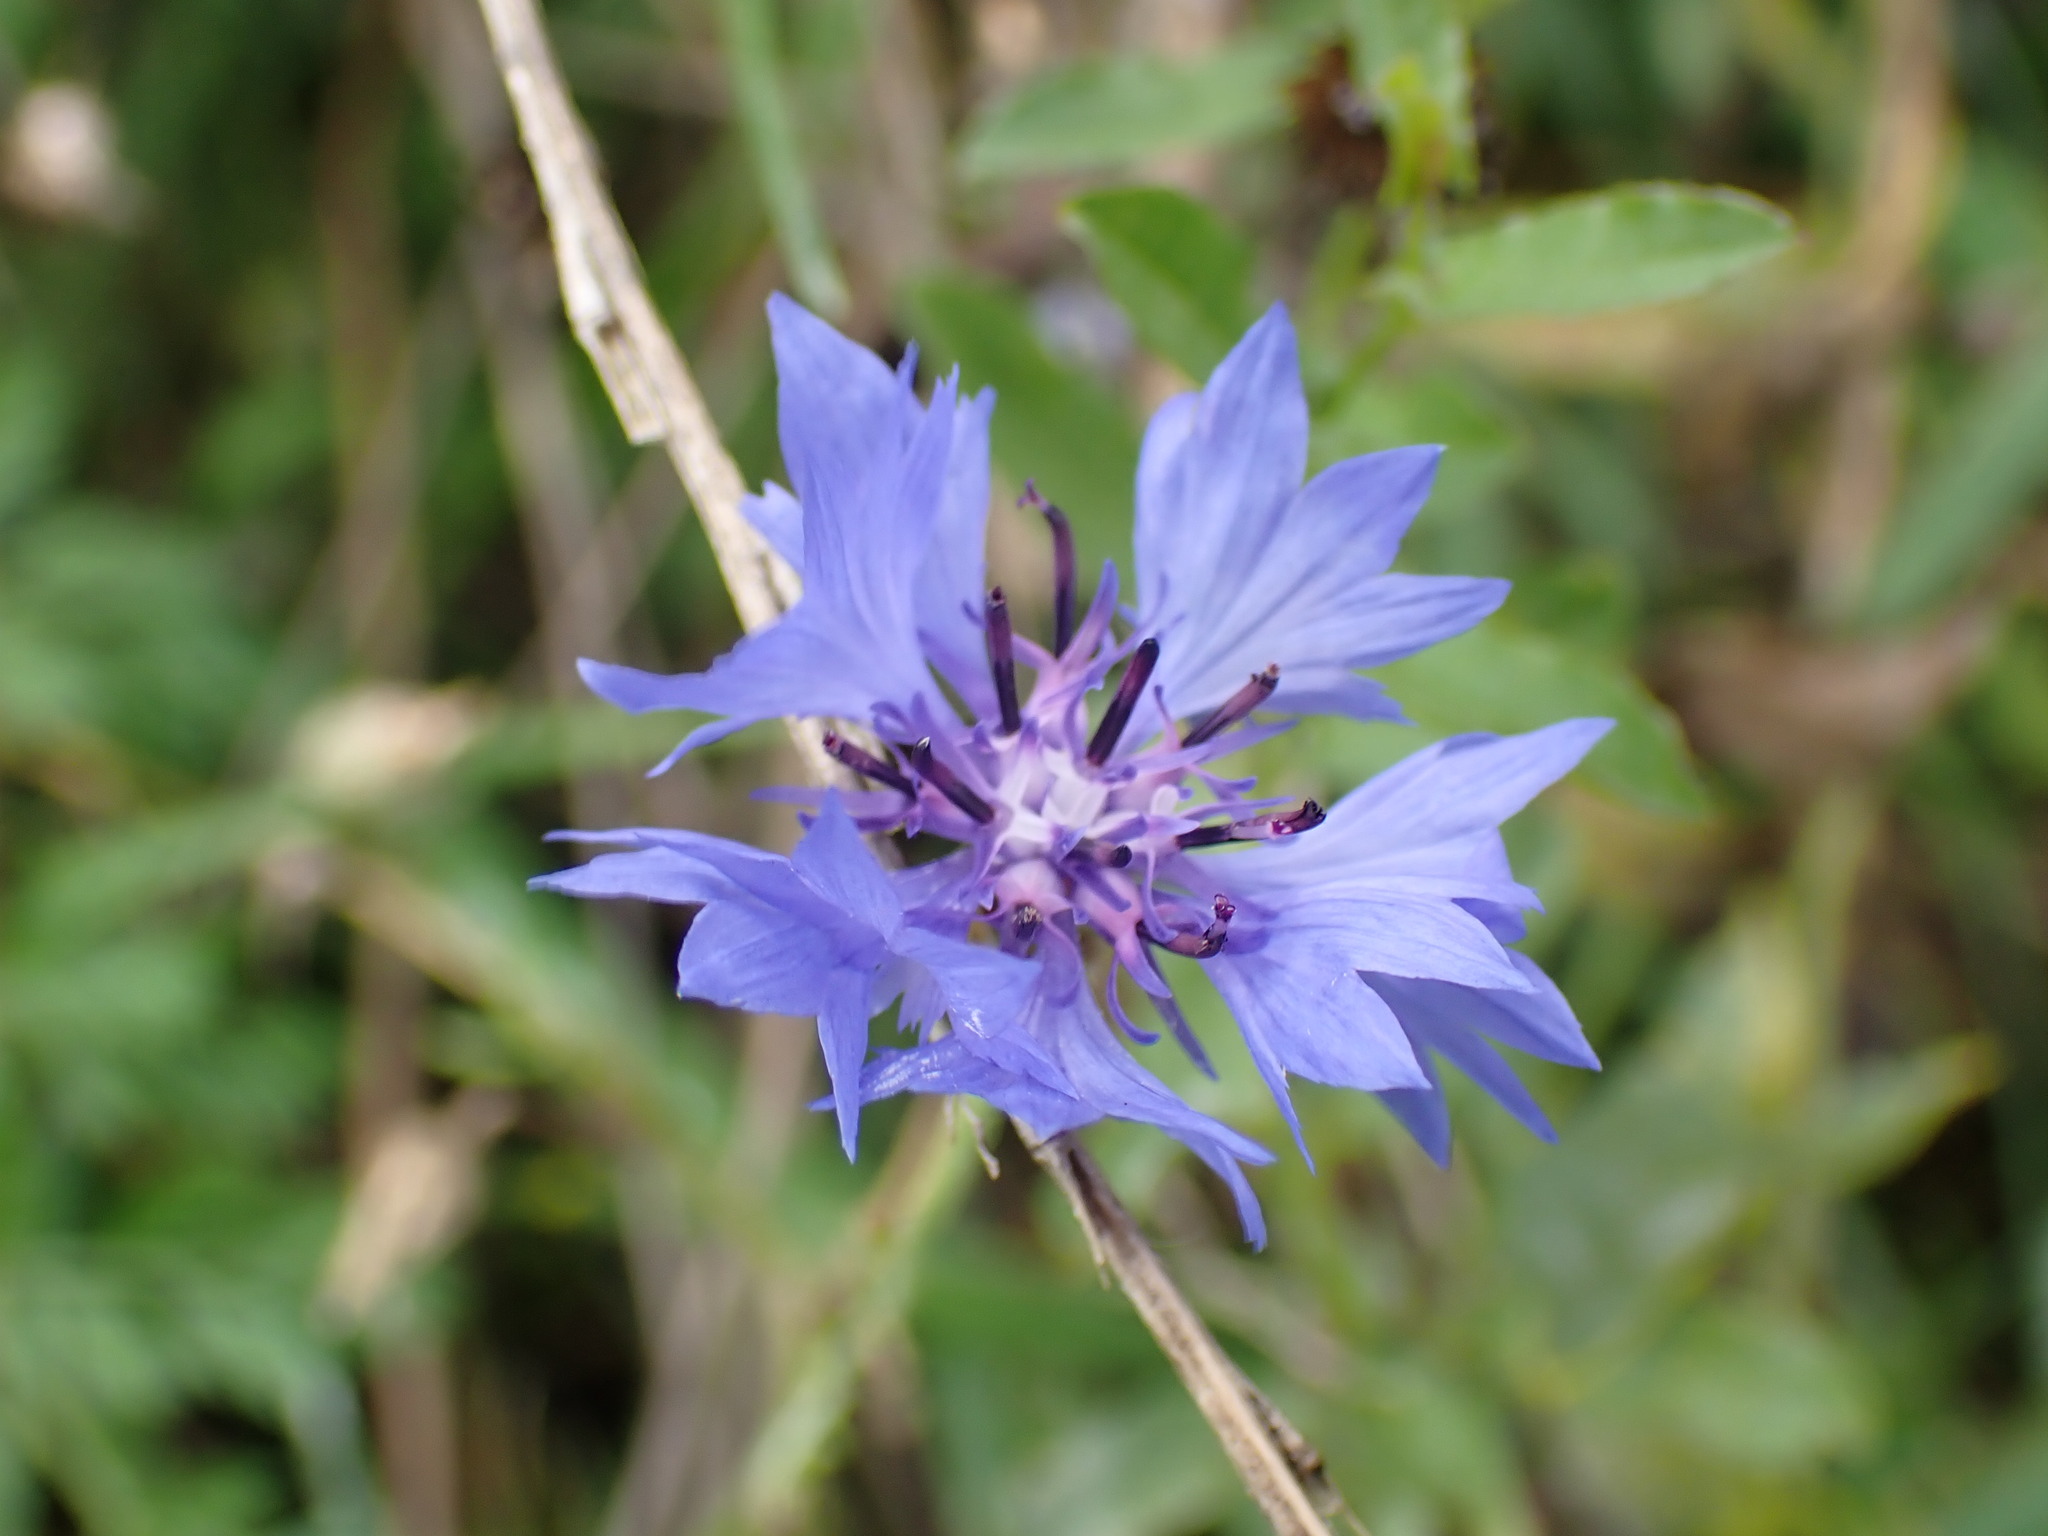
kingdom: Plantae
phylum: Tracheophyta
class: Magnoliopsida
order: Asterales
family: Asteraceae
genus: Centaurea
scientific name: Centaurea cyanus
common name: Cornflower
